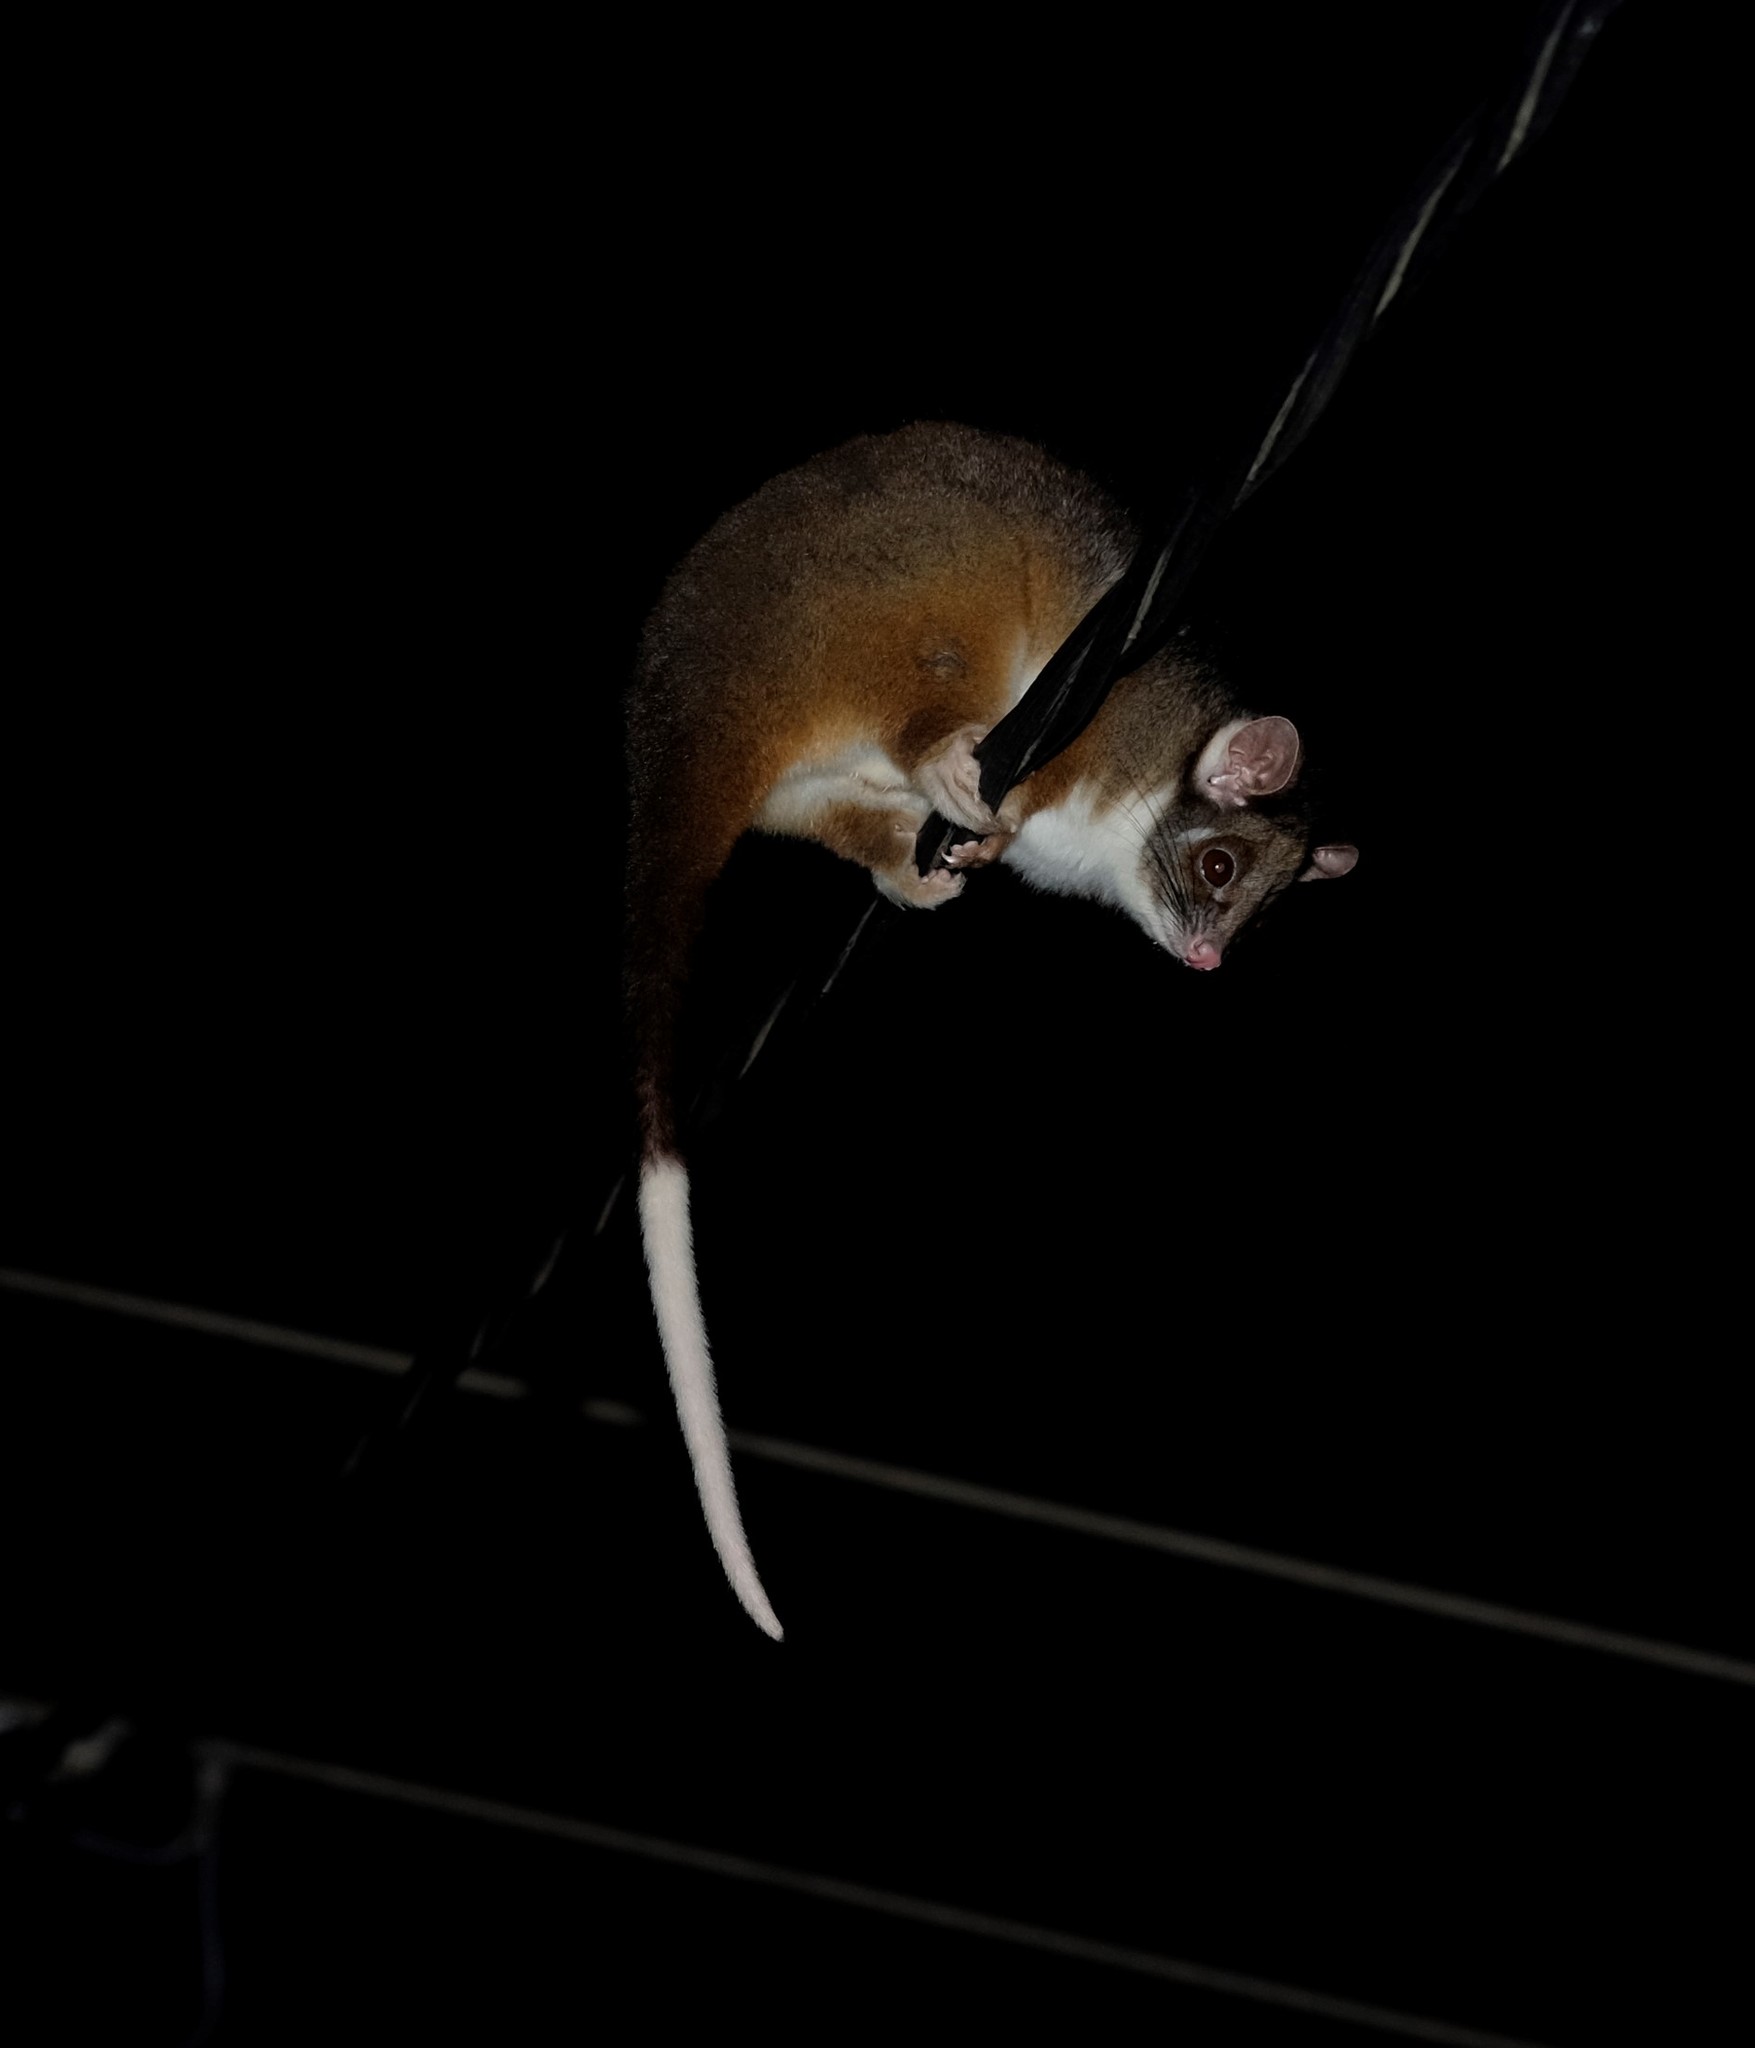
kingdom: Animalia
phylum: Chordata
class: Mammalia
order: Diprotodontia
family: Pseudocheiridae
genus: Pseudocheirus
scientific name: Pseudocheirus peregrinus
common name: Common ringtail possum
